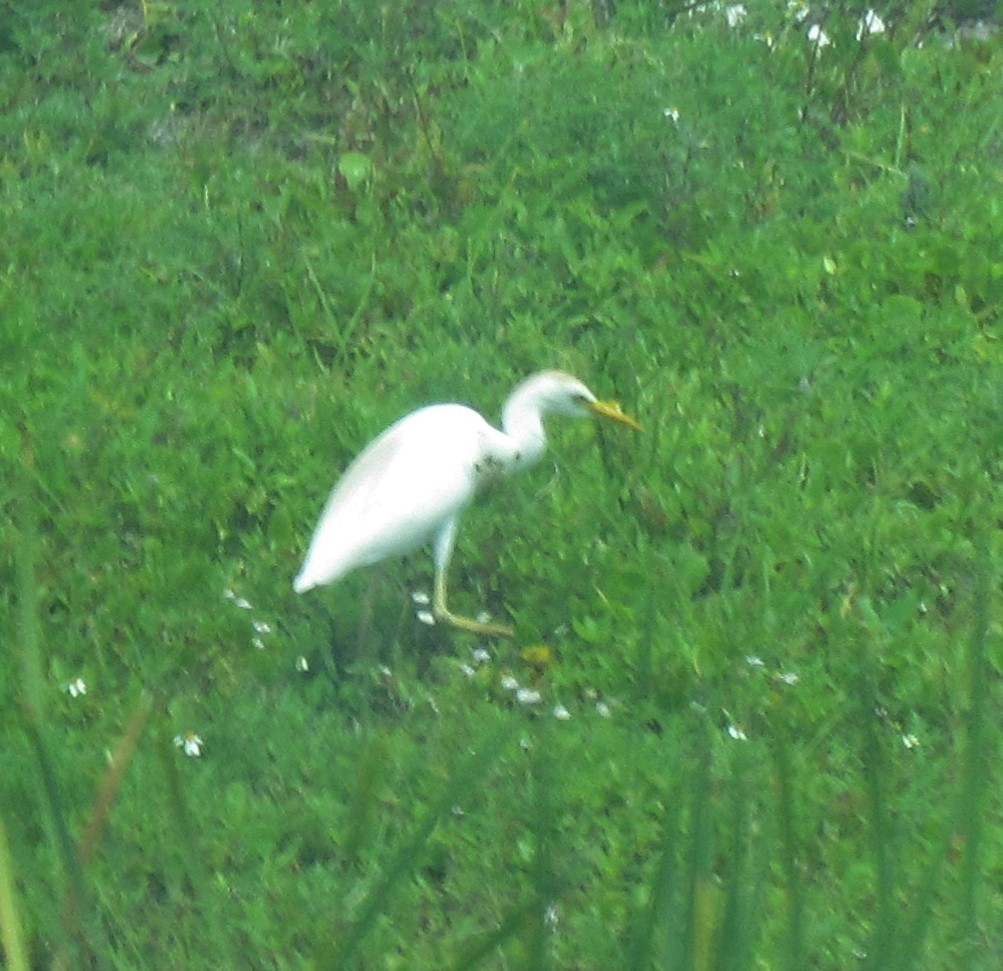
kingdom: Animalia
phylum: Chordata
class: Aves
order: Pelecaniformes
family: Ardeidae
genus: Bubulcus
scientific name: Bubulcus ibis
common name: Cattle egret
